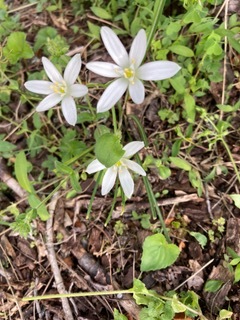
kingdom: Plantae
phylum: Tracheophyta
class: Liliopsida
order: Asparagales
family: Asparagaceae
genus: Ornithogalum
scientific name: Ornithogalum umbellatum
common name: Garden star-of-bethlehem
